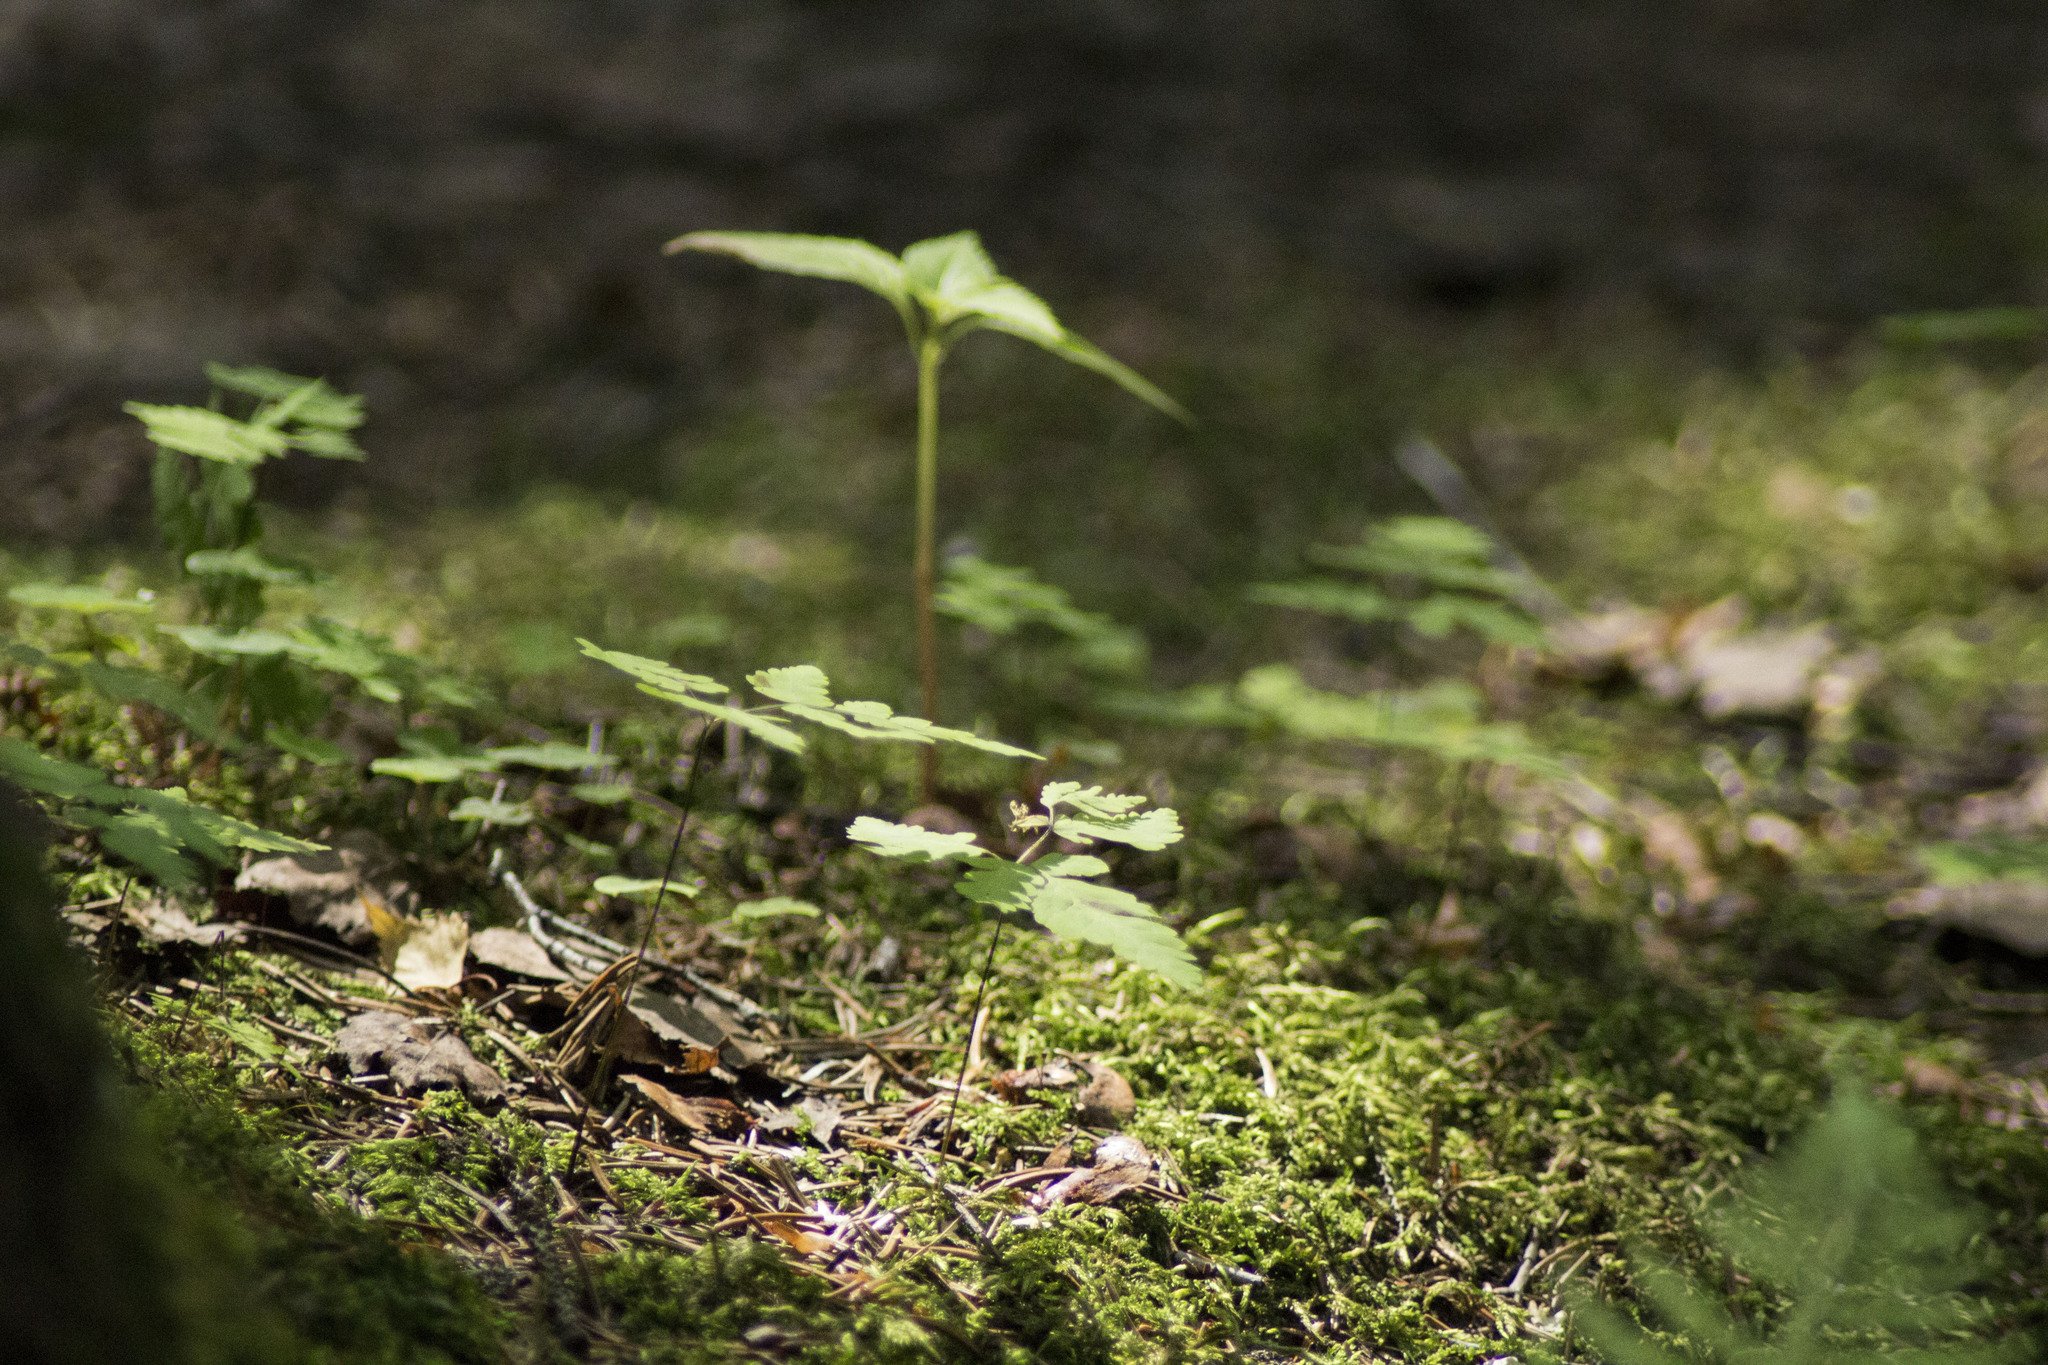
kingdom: Plantae
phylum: Tracheophyta
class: Polypodiopsida
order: Polypodiales
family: Cystopteridaceae
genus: Gymnocarpium
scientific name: Gymnocarpium dryopteris
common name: Oak fern
